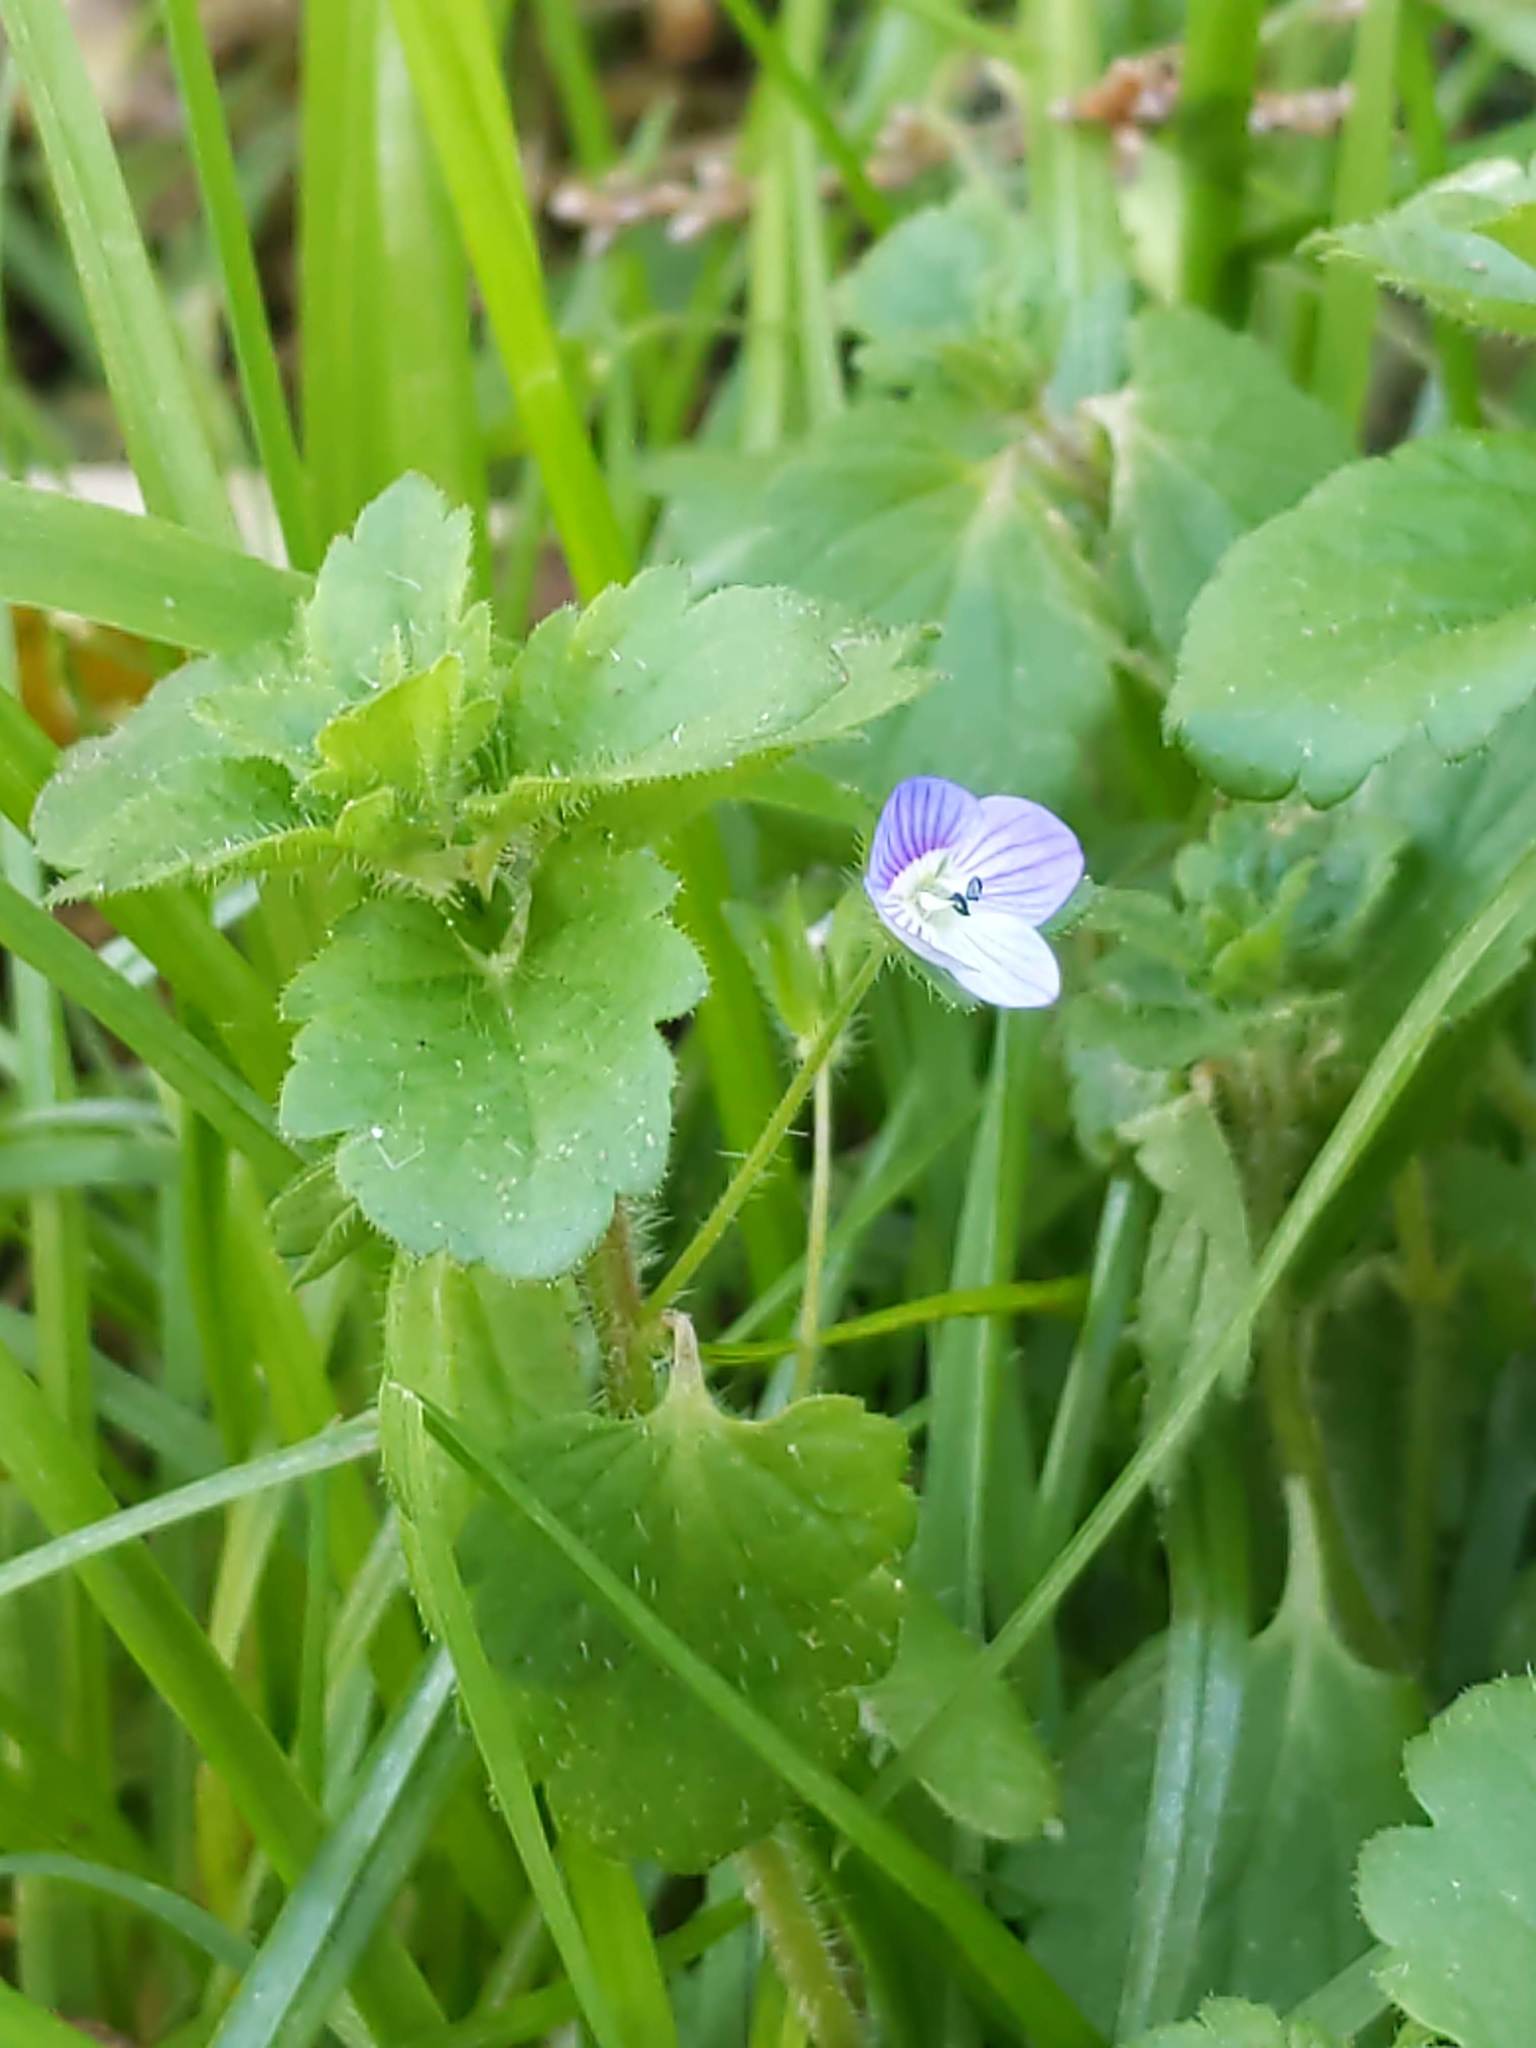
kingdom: Plantae
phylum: Tracheophyta
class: Magnoliopsida
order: Lamiales
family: Plantaginaceae
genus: Veronica
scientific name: Veronica persica
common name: Common field-speedwell
